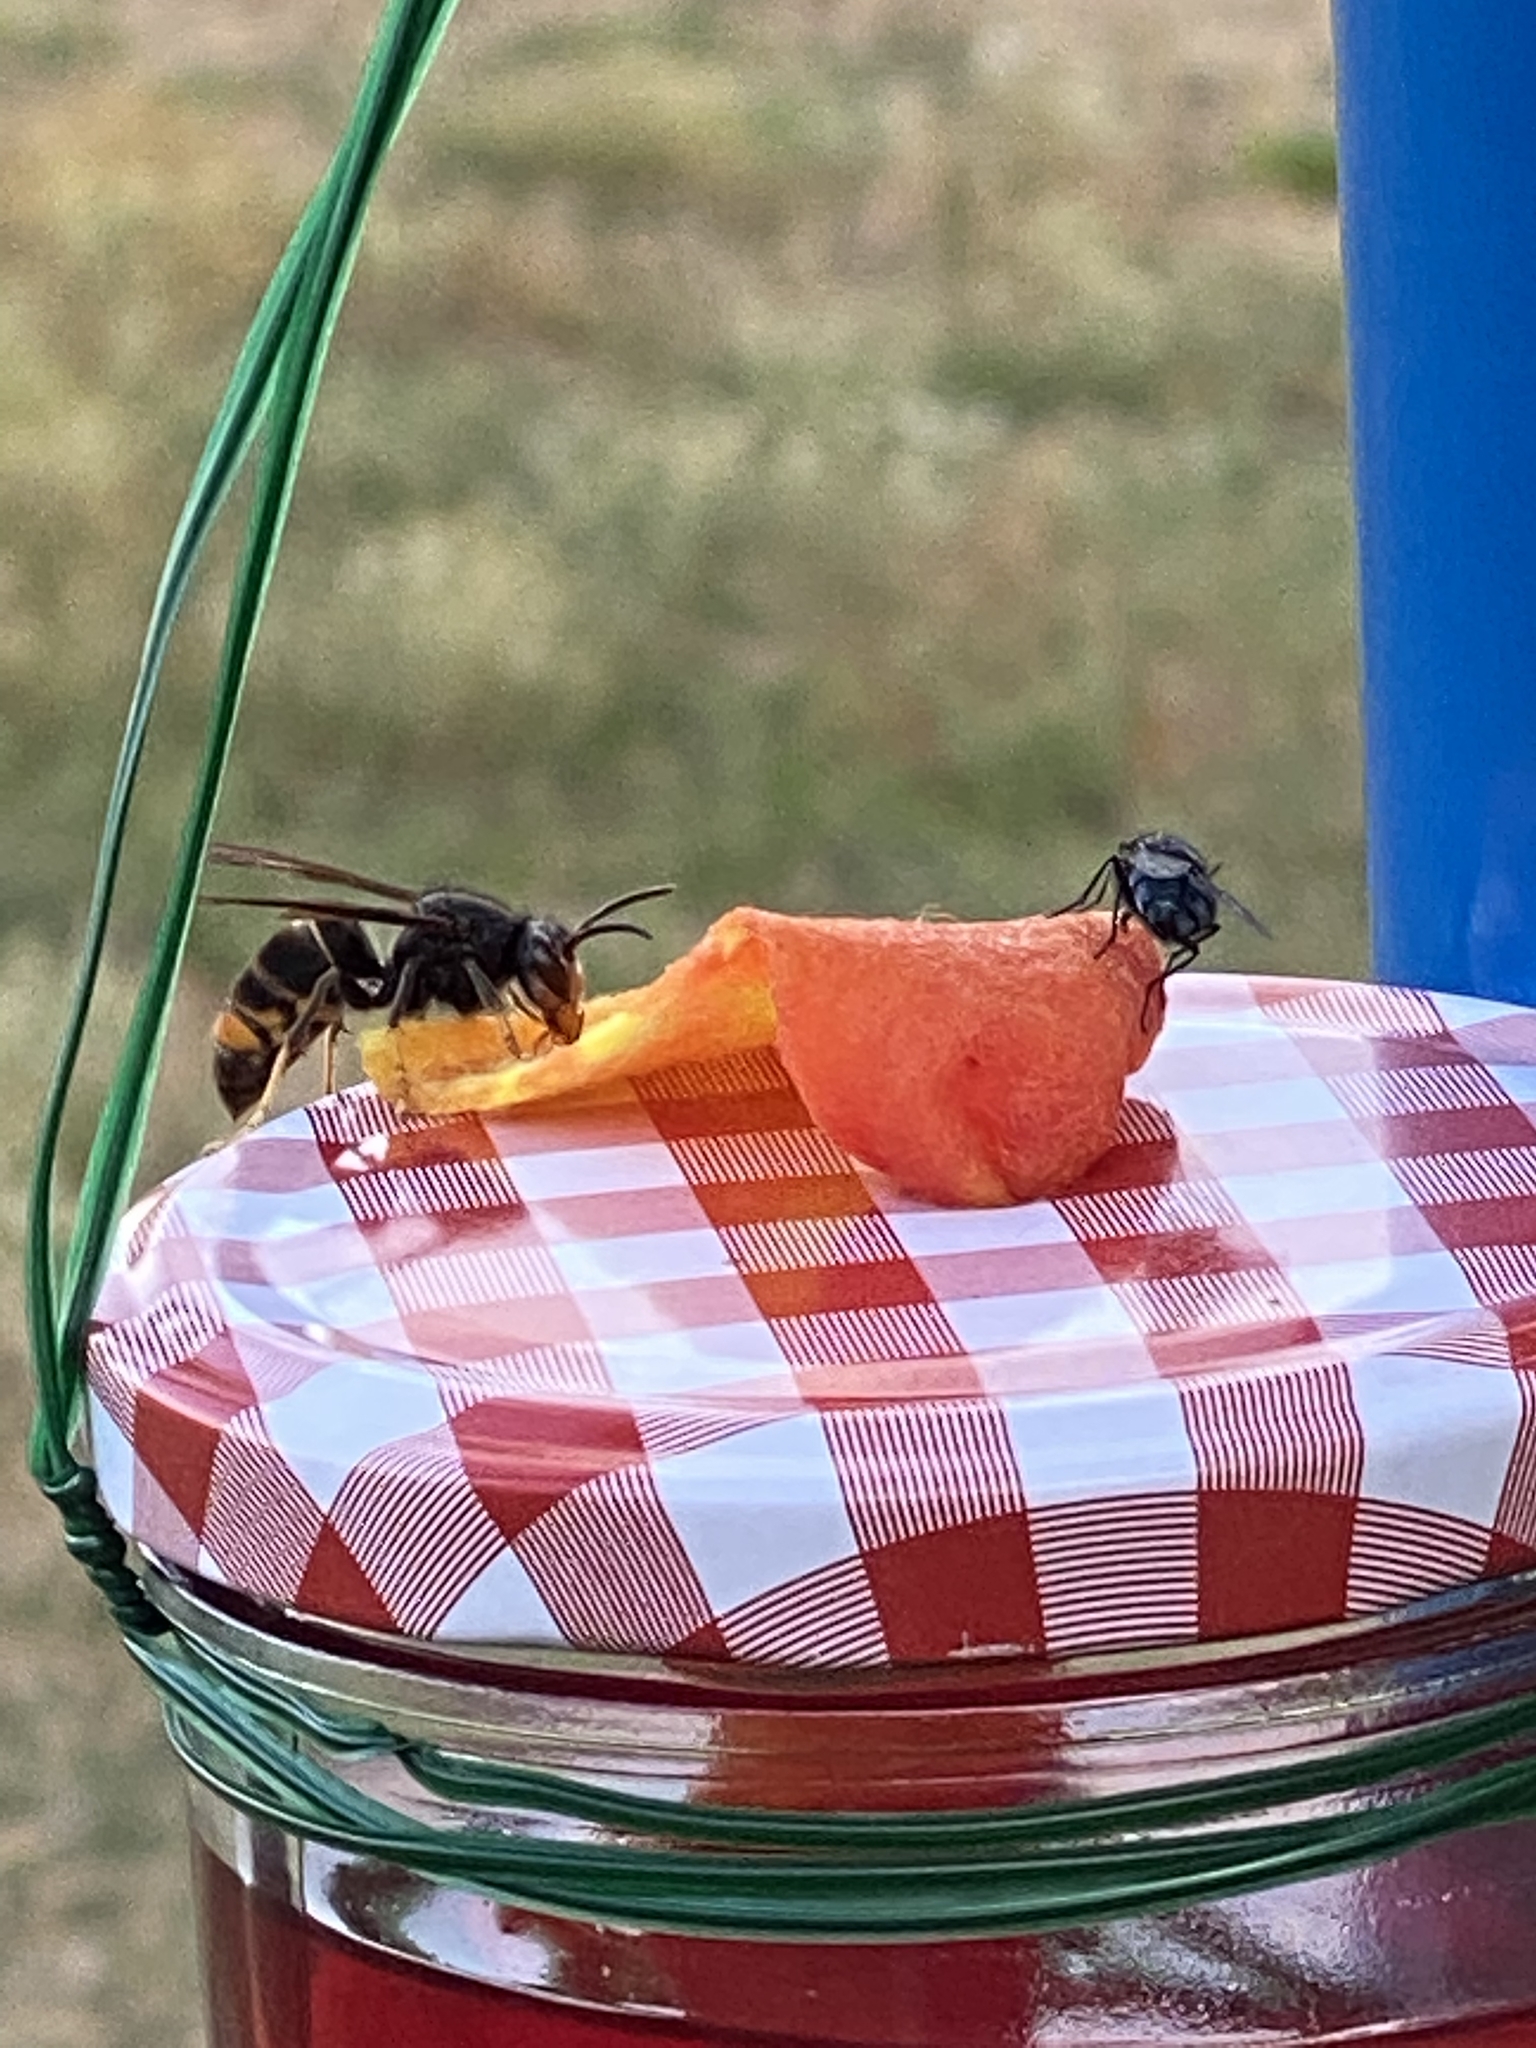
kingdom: Animalia
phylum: Arthropoda
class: Insecta
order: Hymenoptera
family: Vespidae
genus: Vespa
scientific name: Vespa velutina
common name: Asian hornet
